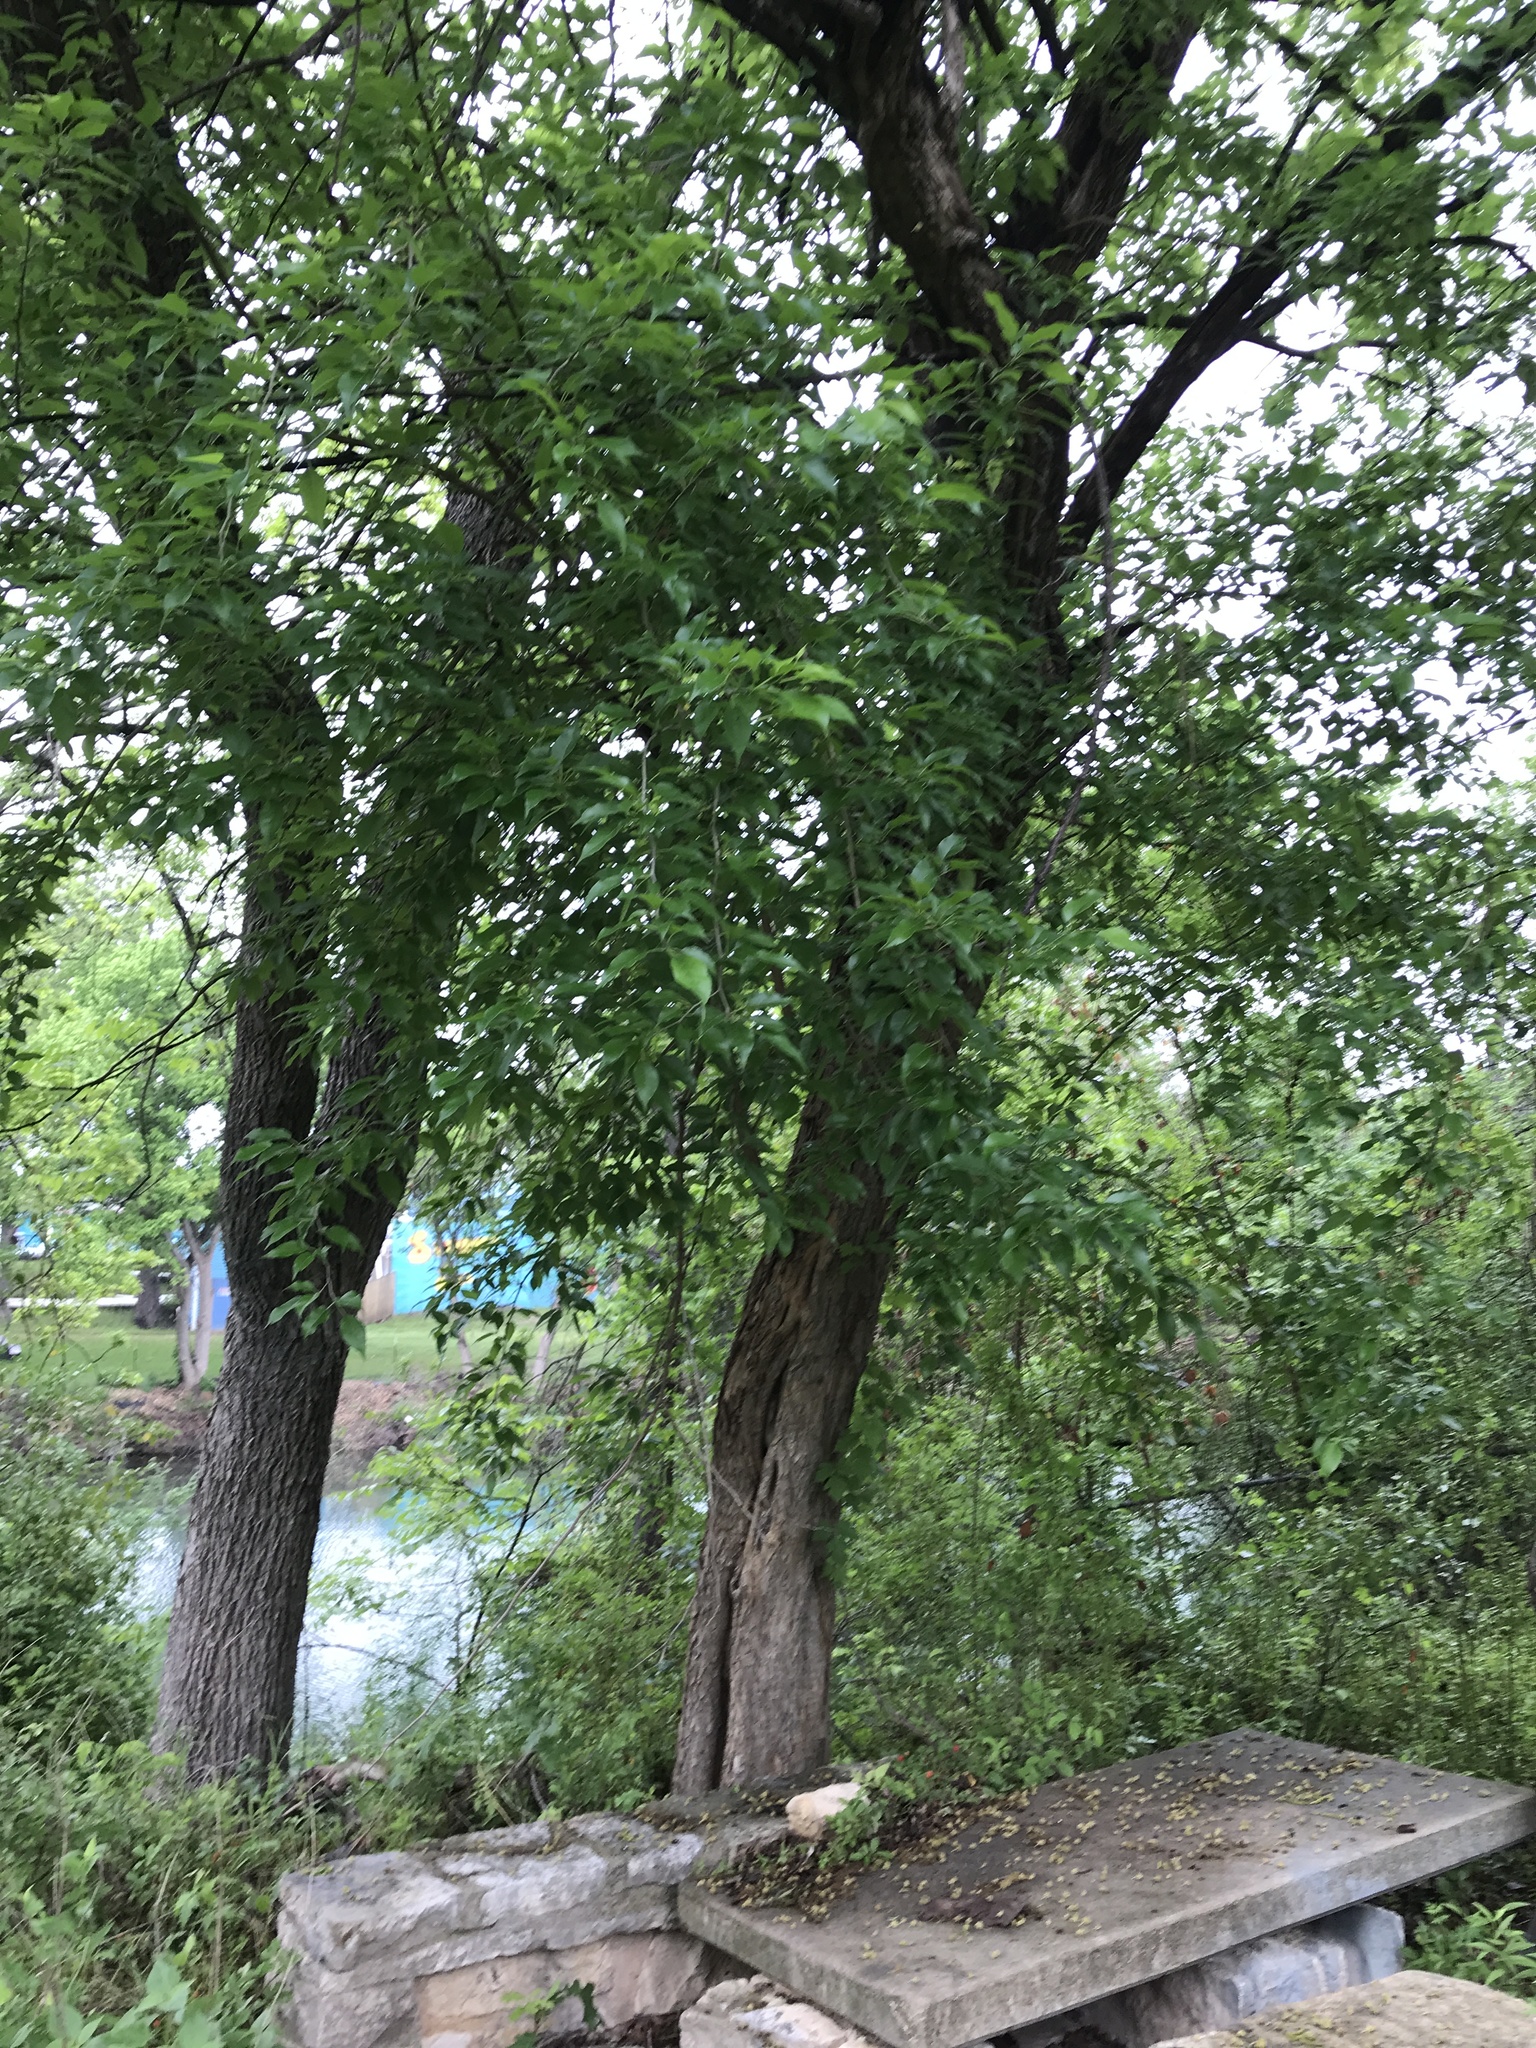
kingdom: Plantae
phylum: Tracheophyta
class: Magnoliopsida
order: Rosales
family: Moraceae
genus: Maclura
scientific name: Maclura pomifera
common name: Osage-orange
